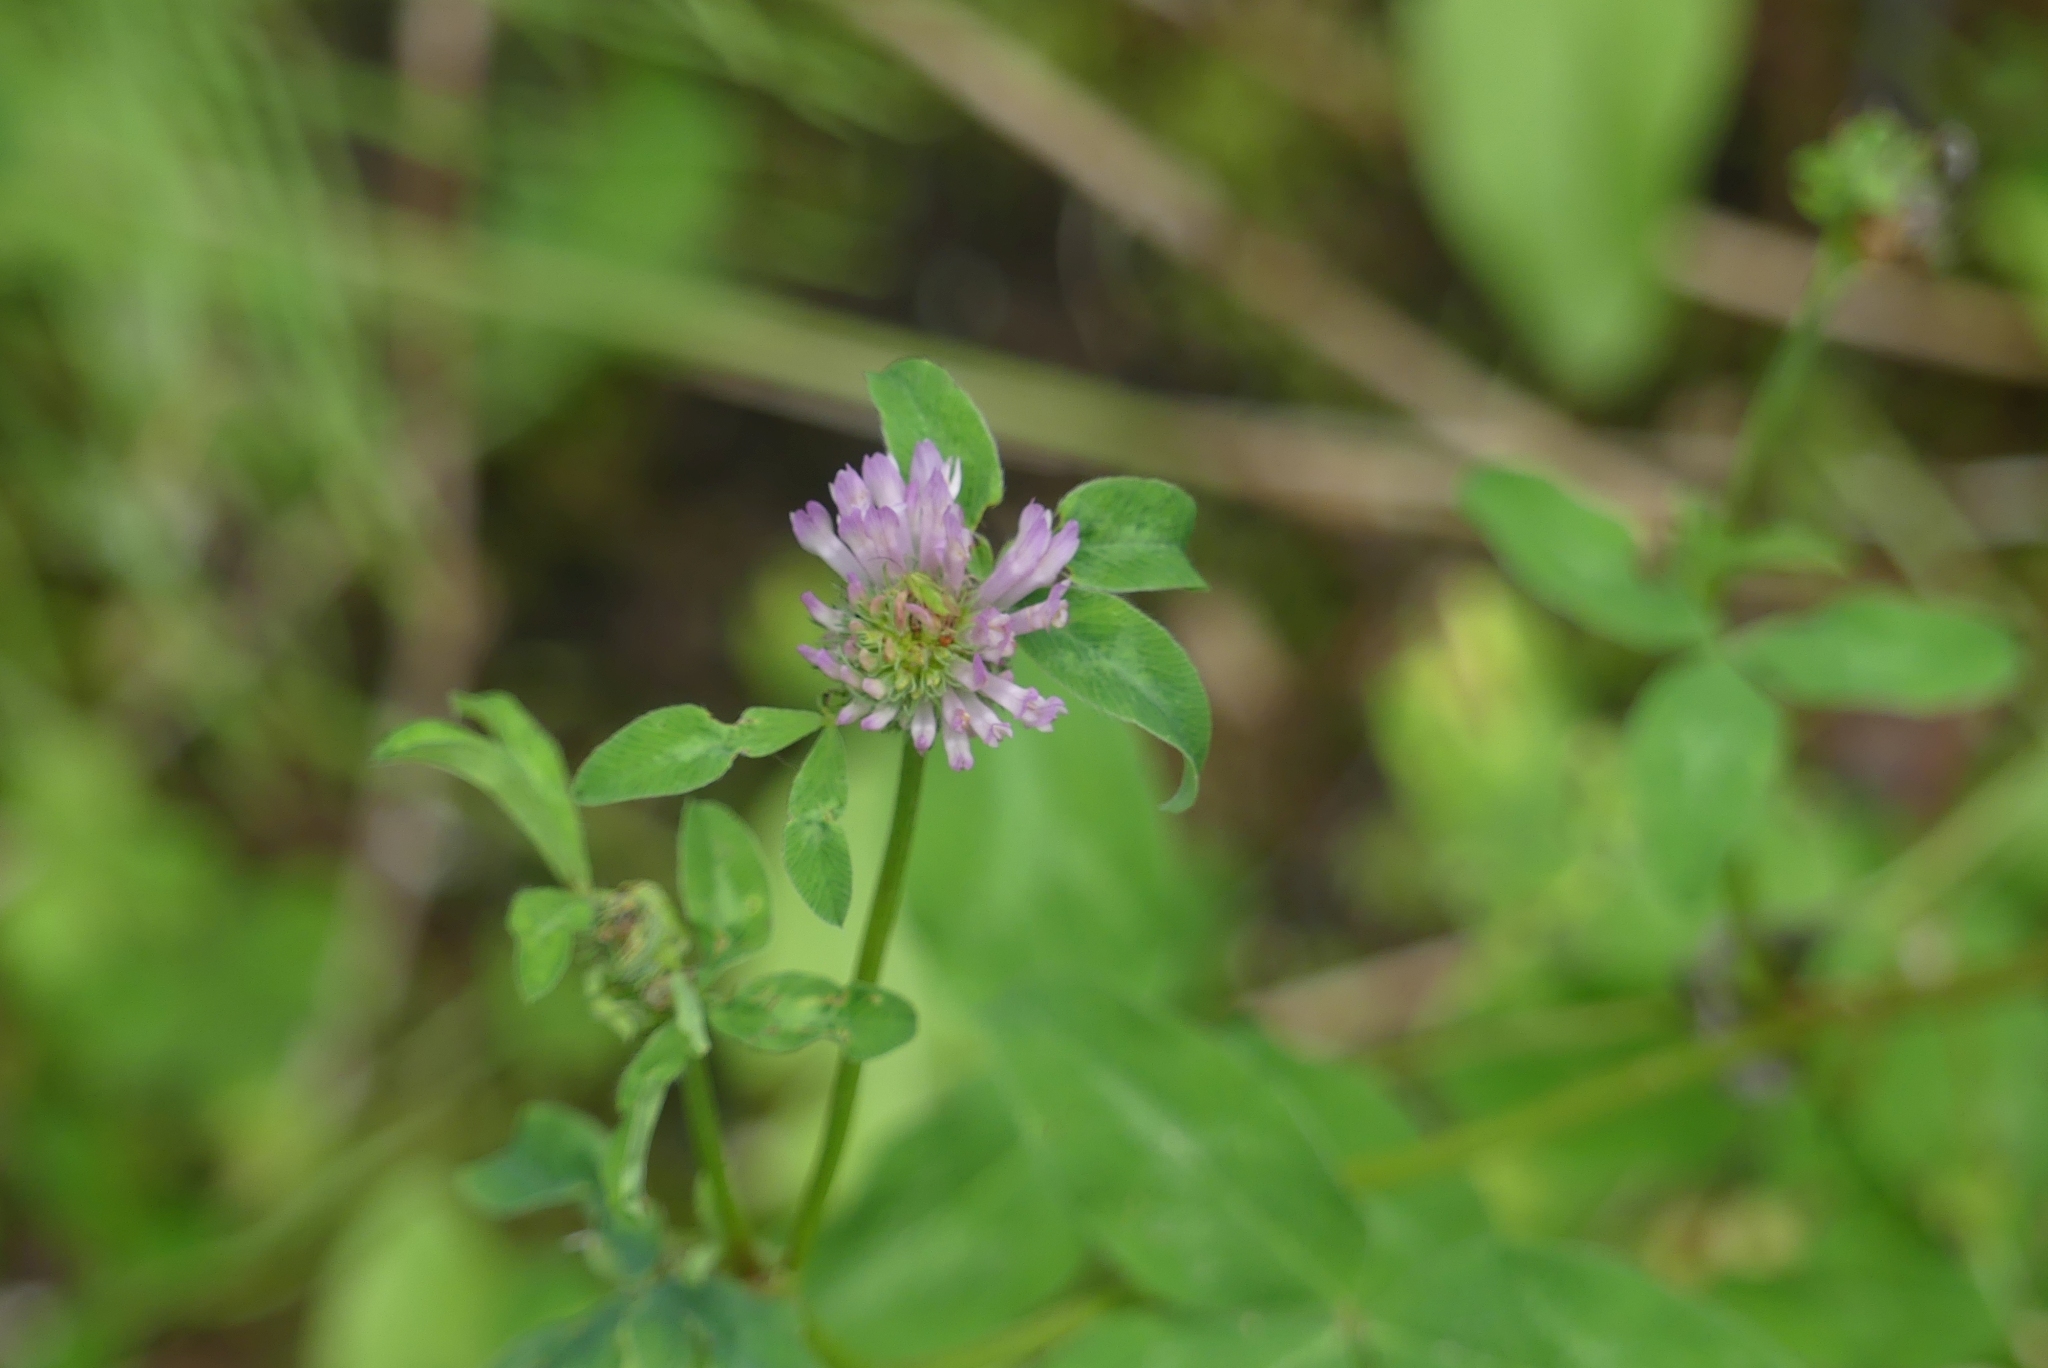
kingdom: Plantae
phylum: Tracheophyta
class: Magnoliopsida
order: Fabales
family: Fabaceae
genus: Trifolium
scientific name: Trifolium pratense
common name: Red clover
